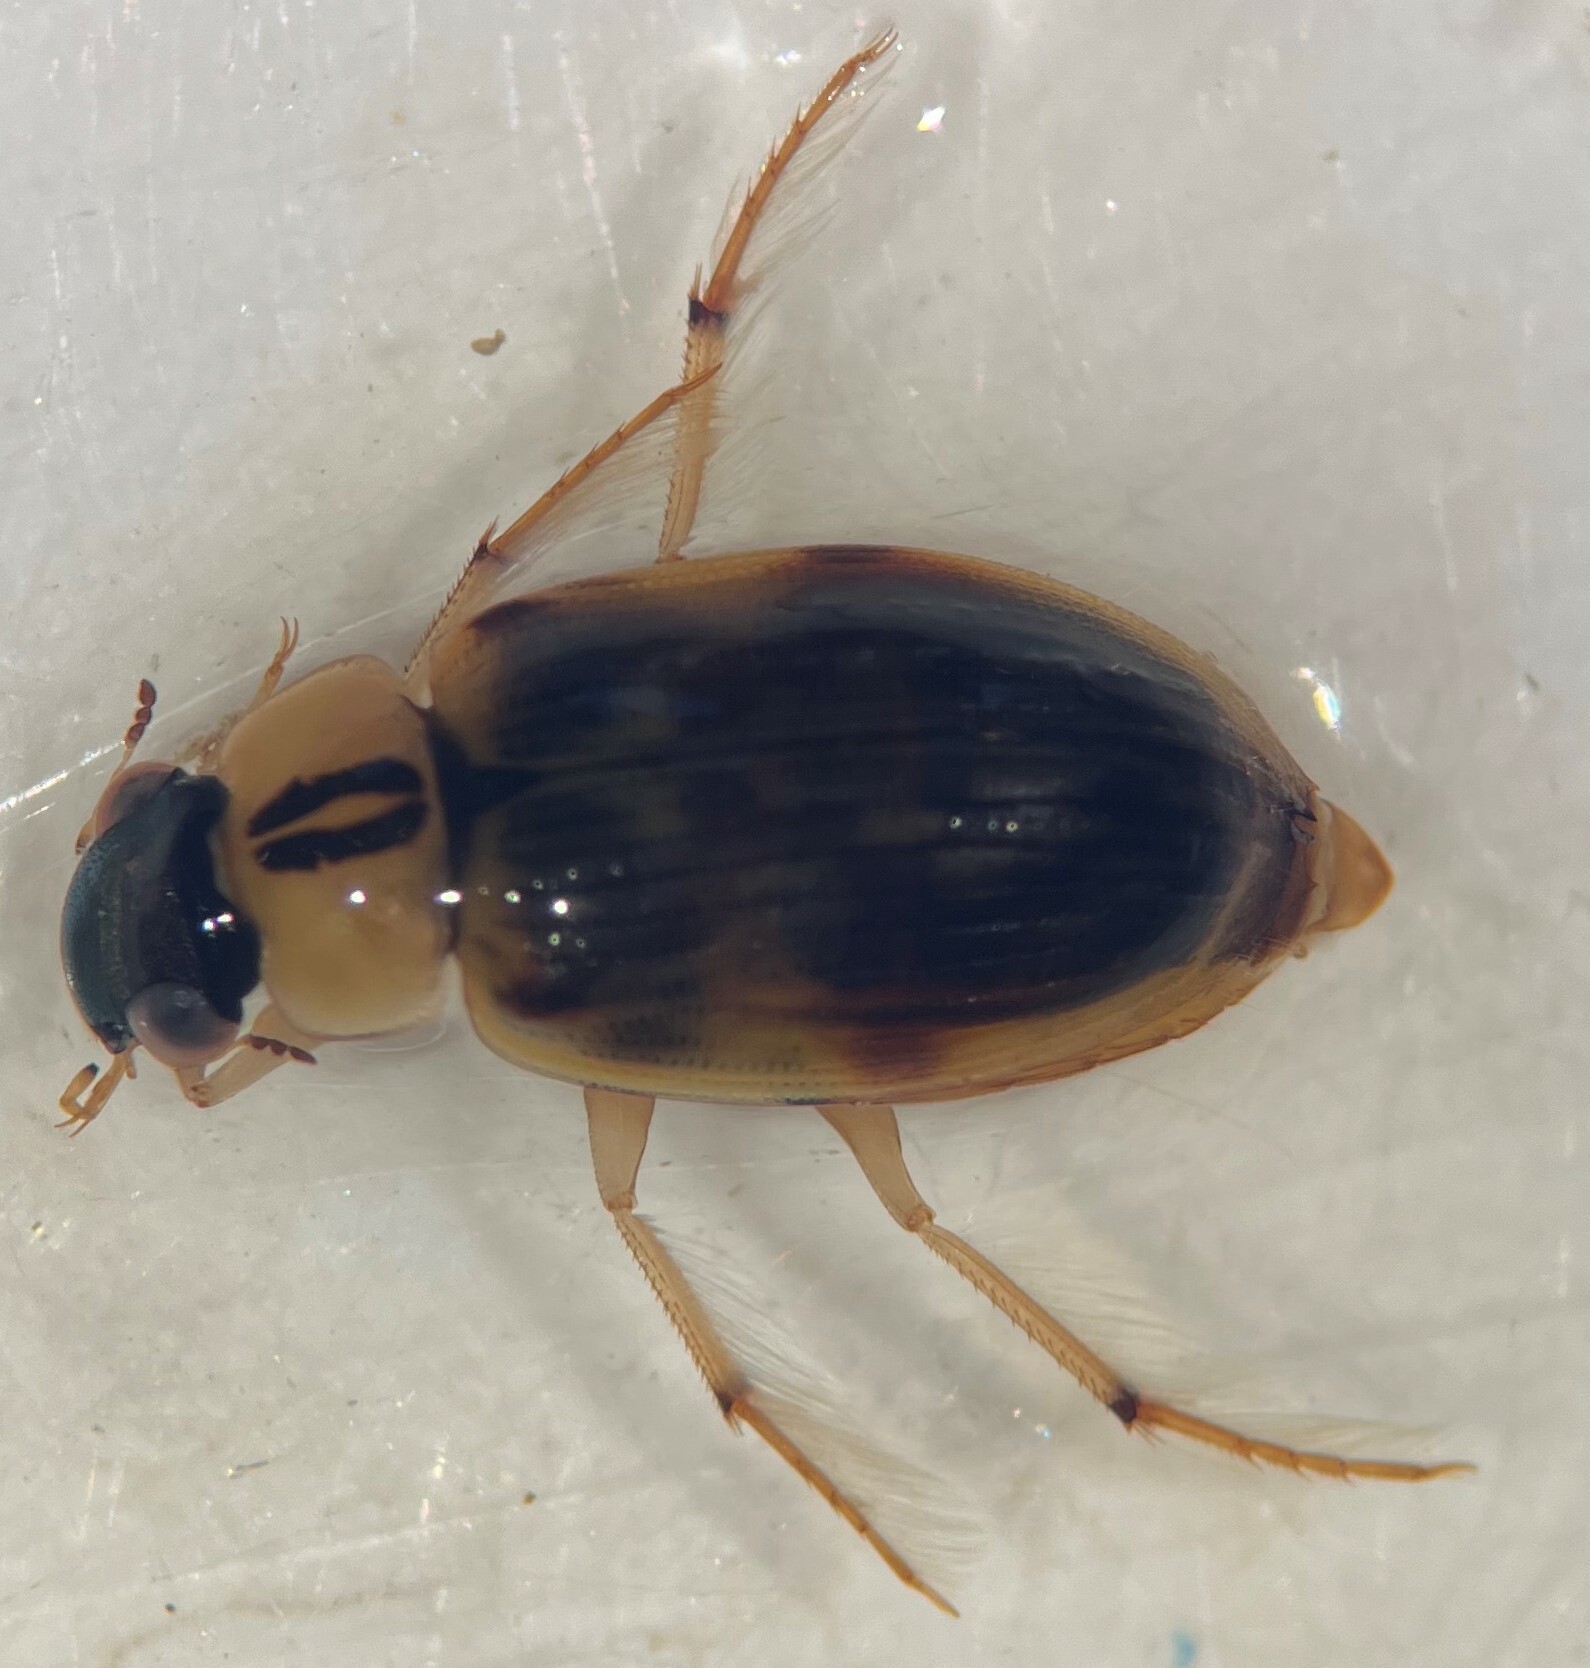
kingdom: Animalia
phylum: Arthropoda
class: Insecta
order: Coleoptera
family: Hydrophilidae
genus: Berosus
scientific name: Berosus miles
